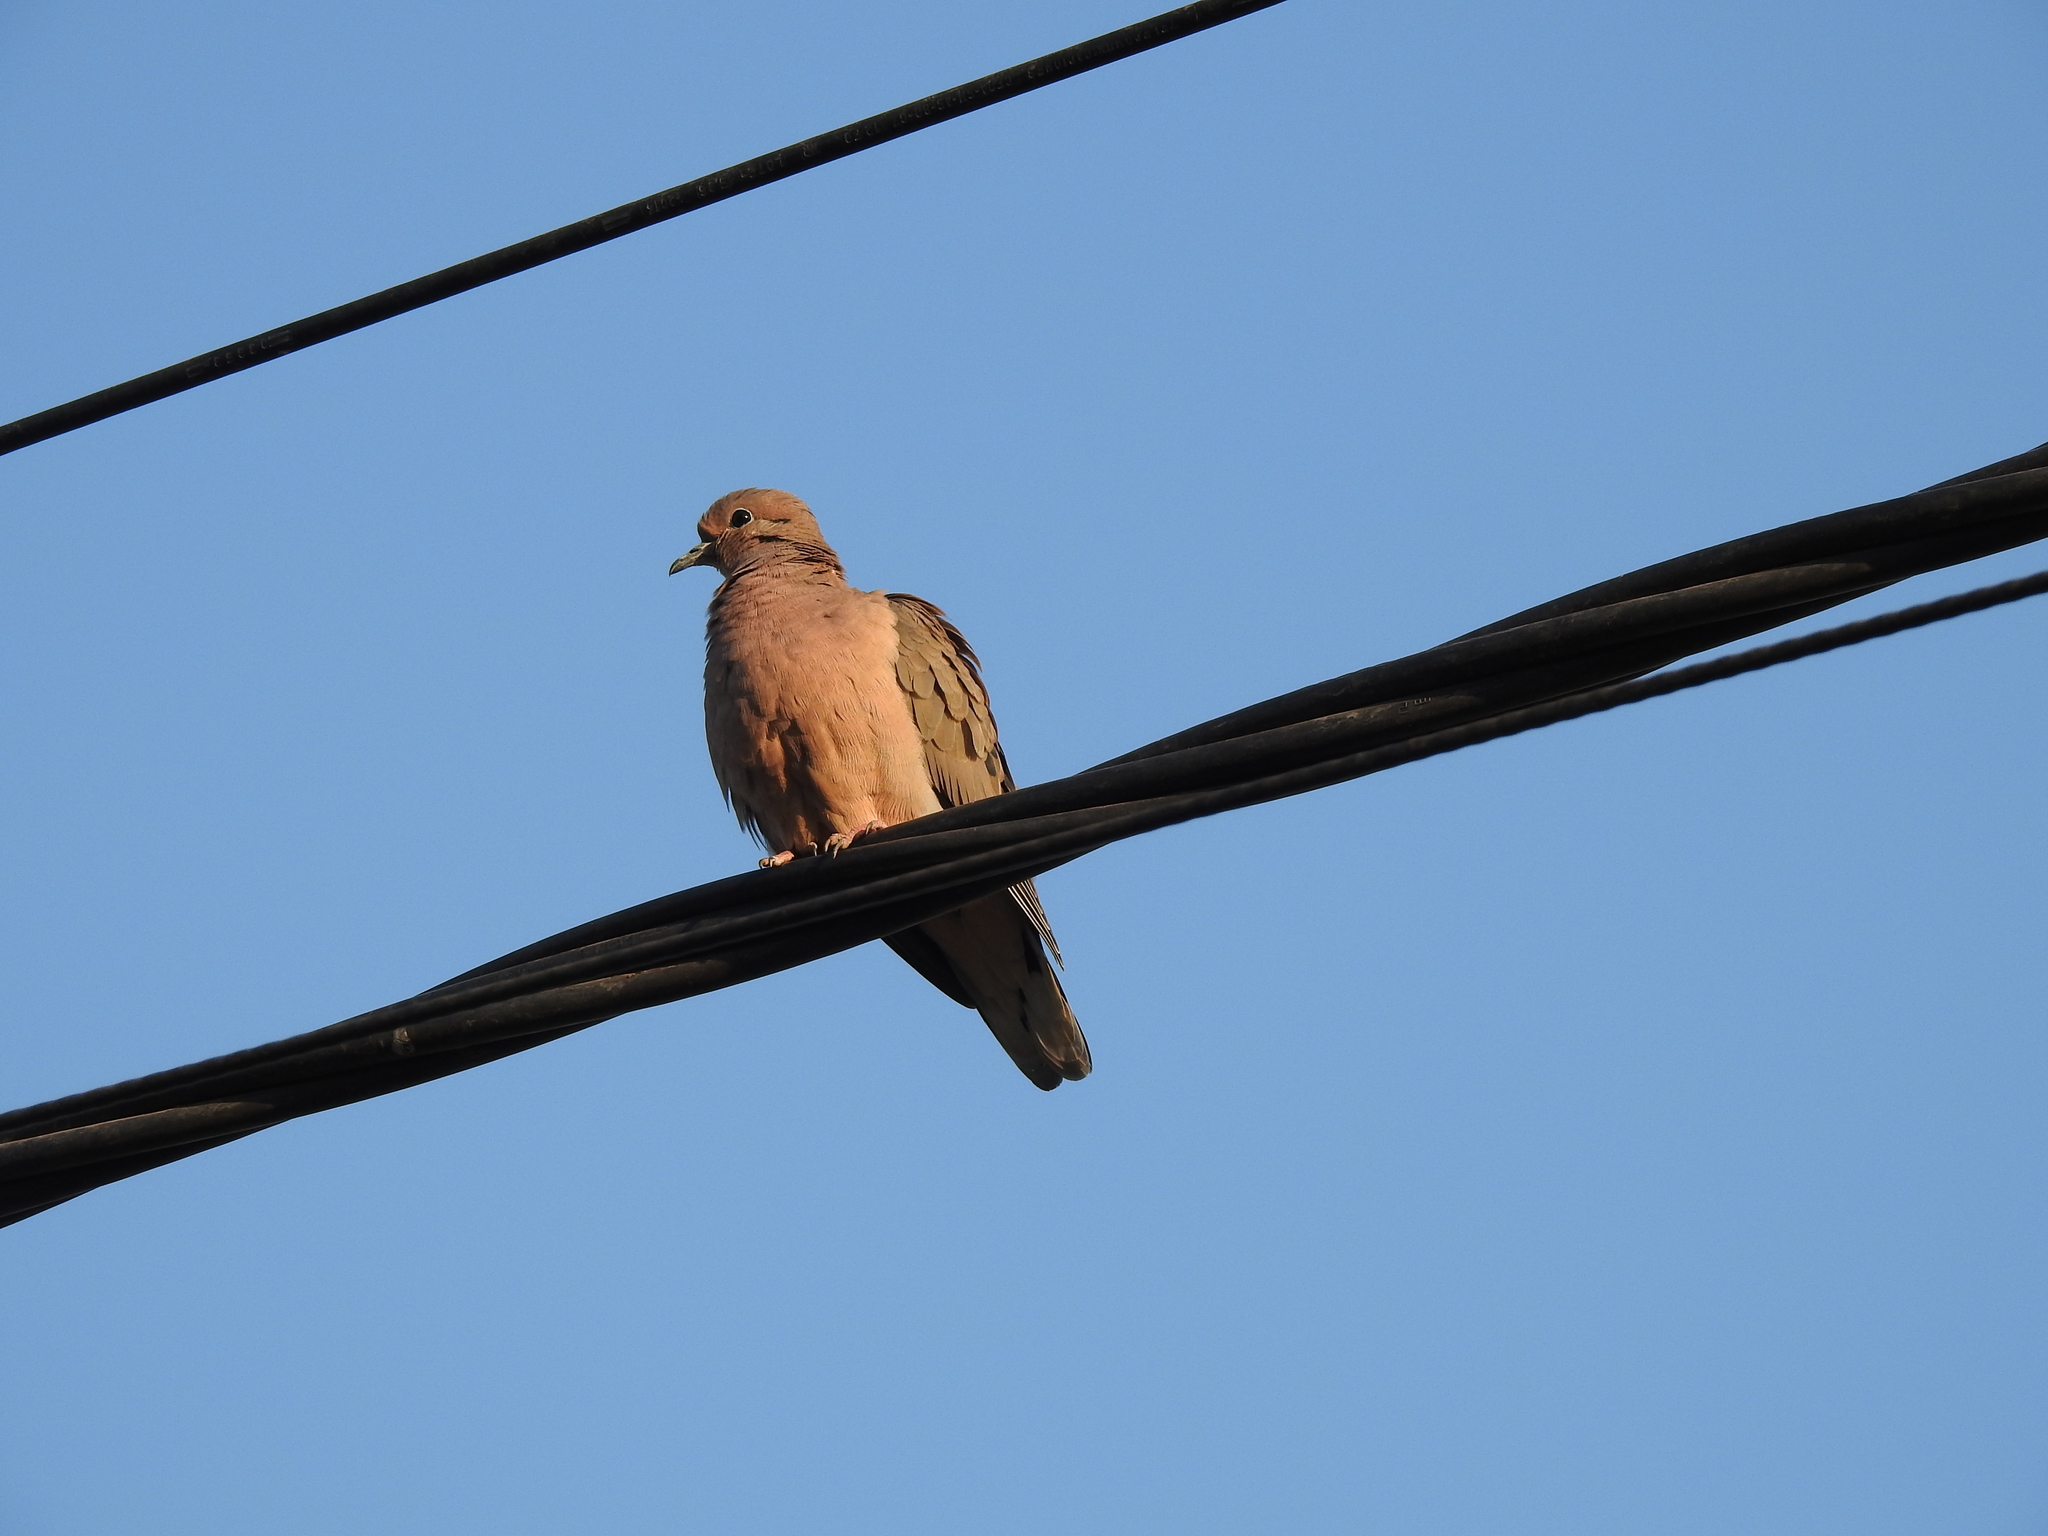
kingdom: Animalia
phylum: Chordata
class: Aves
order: Columbiformes
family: Columbidae
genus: Zenaida
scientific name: Zenaida auriculata
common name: Eared dove
